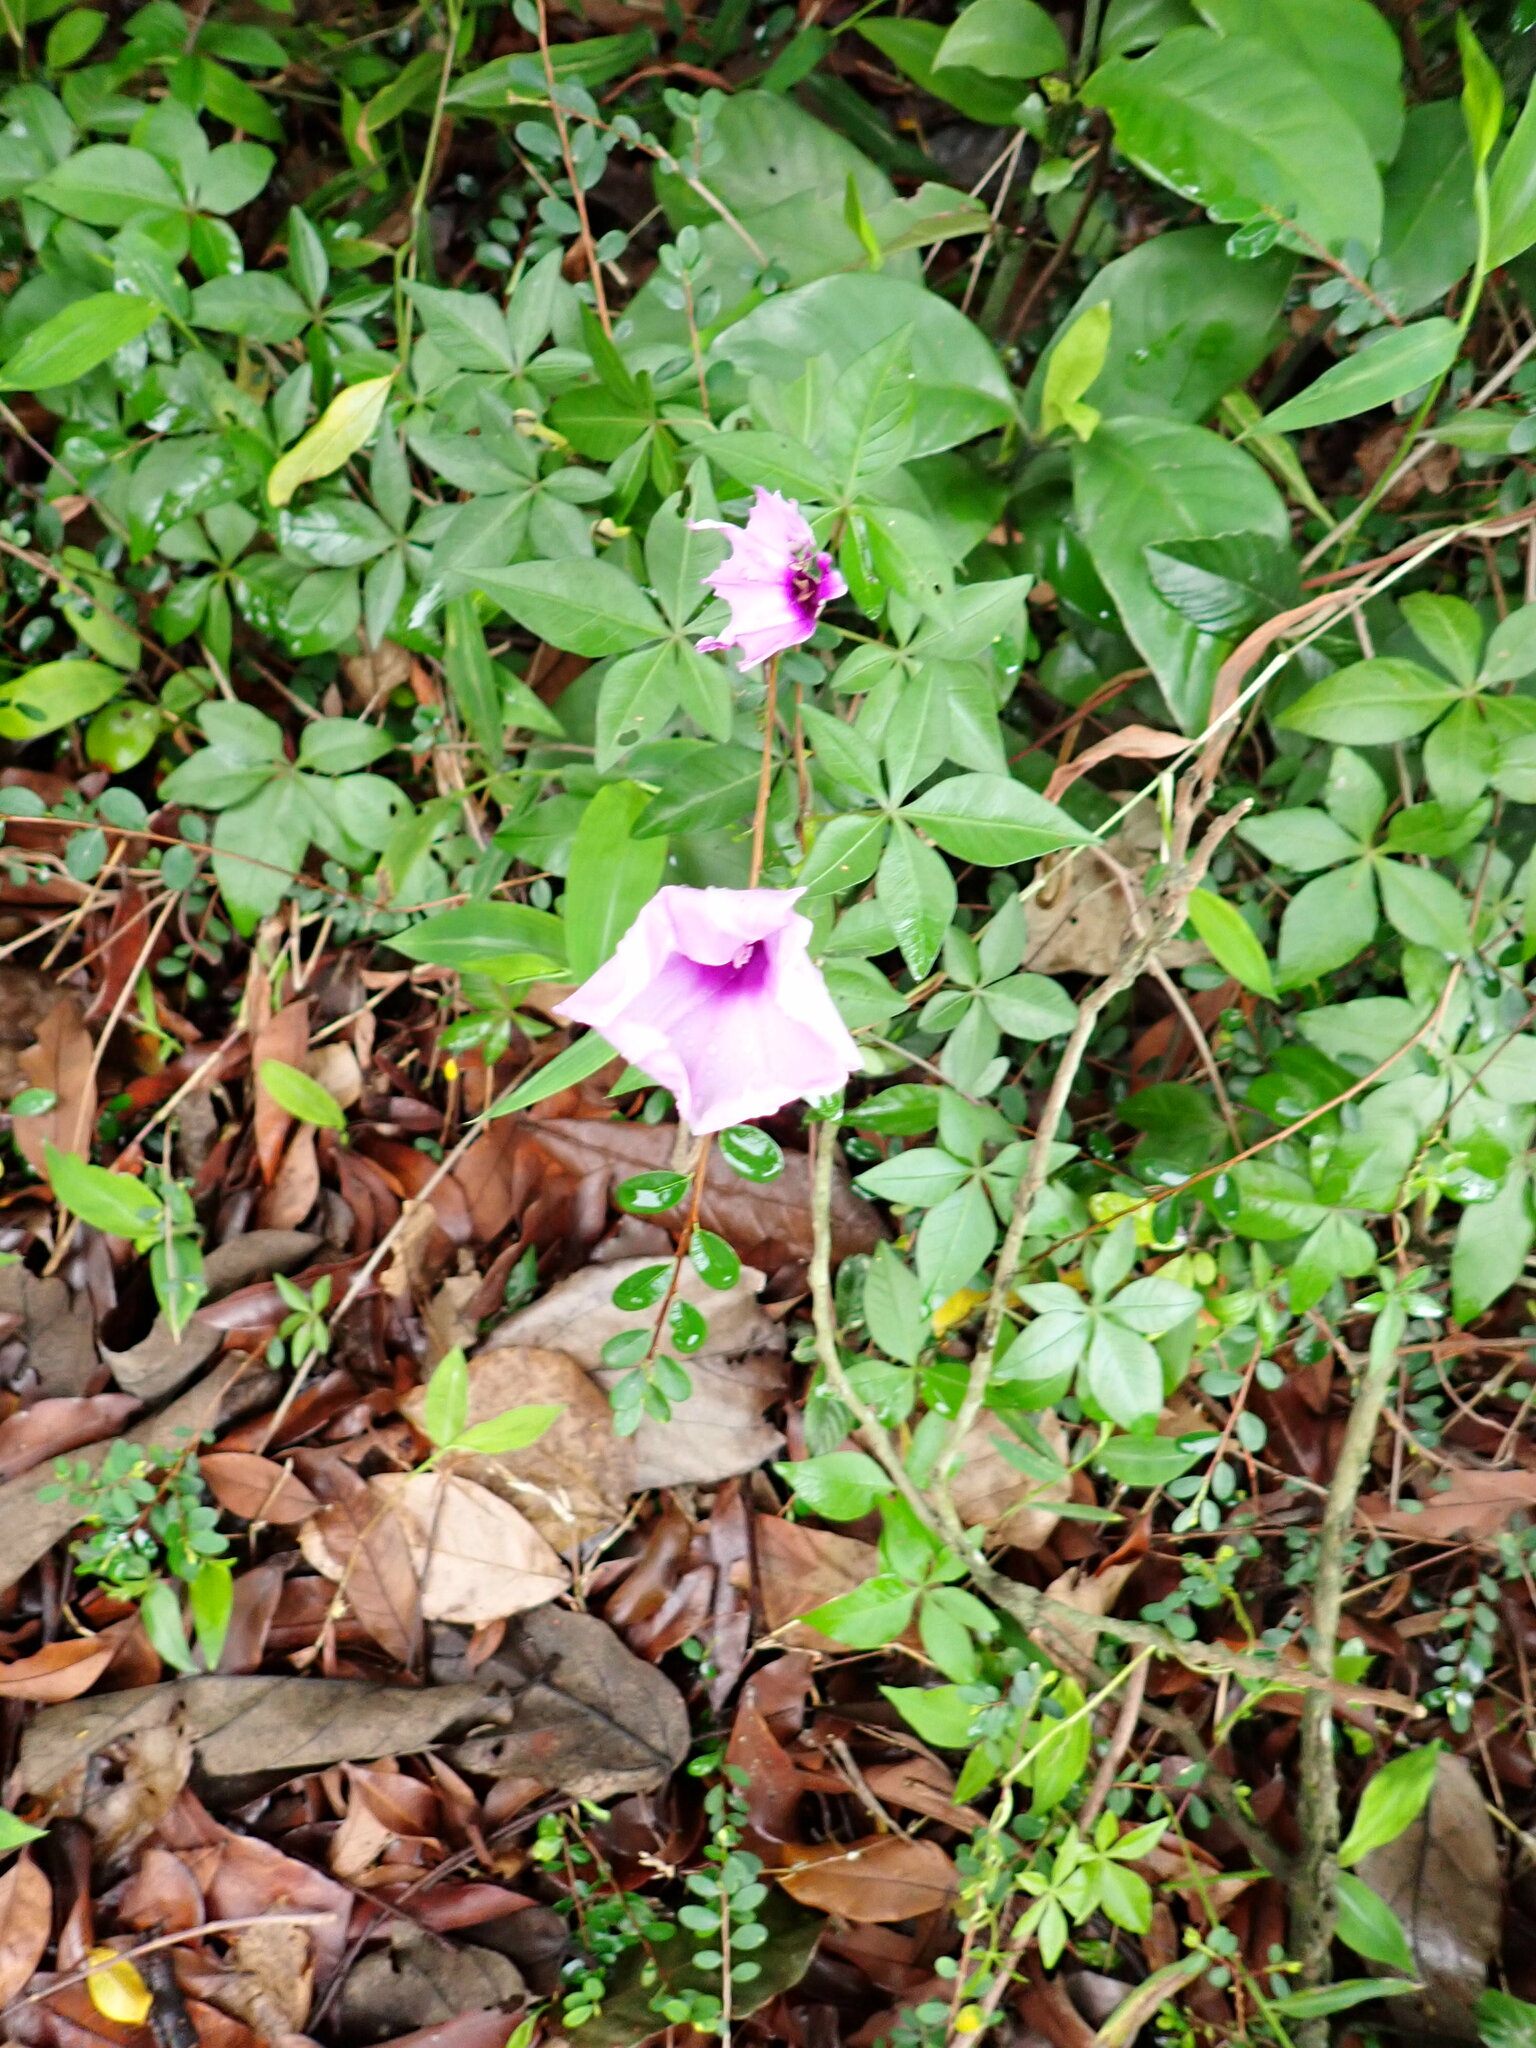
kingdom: Plantae
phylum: Tracheophyta
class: Magnoliopsida
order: Solanales
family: Convolvulaceae
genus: Ipomoea
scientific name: Ipomoea cairica
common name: Mile a minute vine
